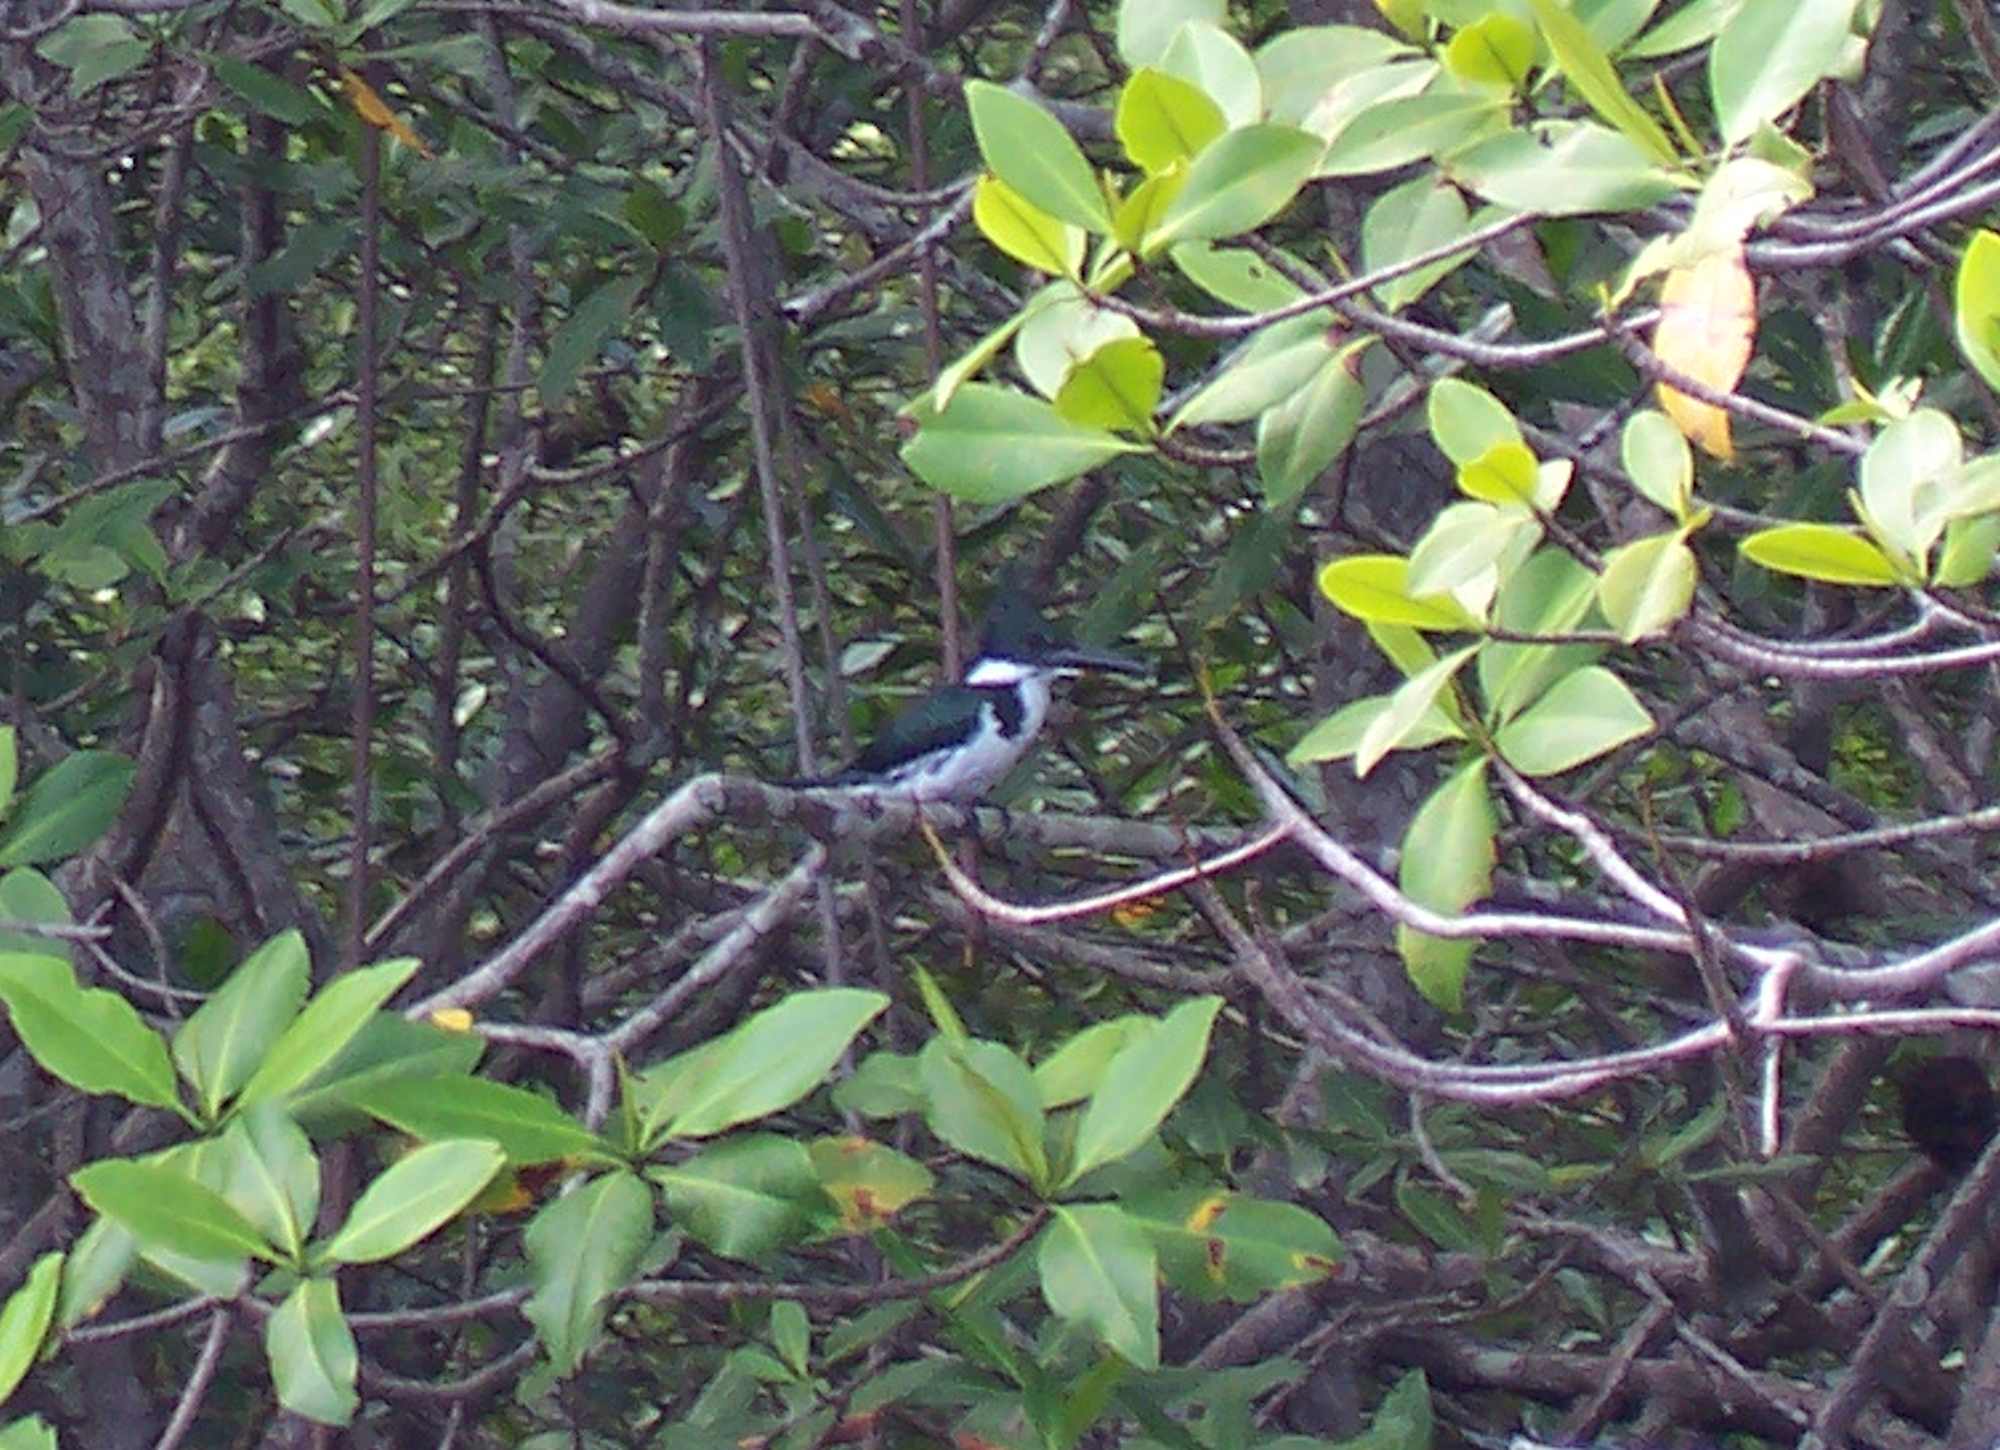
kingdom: Animalia
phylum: Chordata
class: Aves
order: Coraciiformes
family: Alcedinidae
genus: Chloroceryle
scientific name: Chloroceryle amazona
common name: Amazon kingfisher
